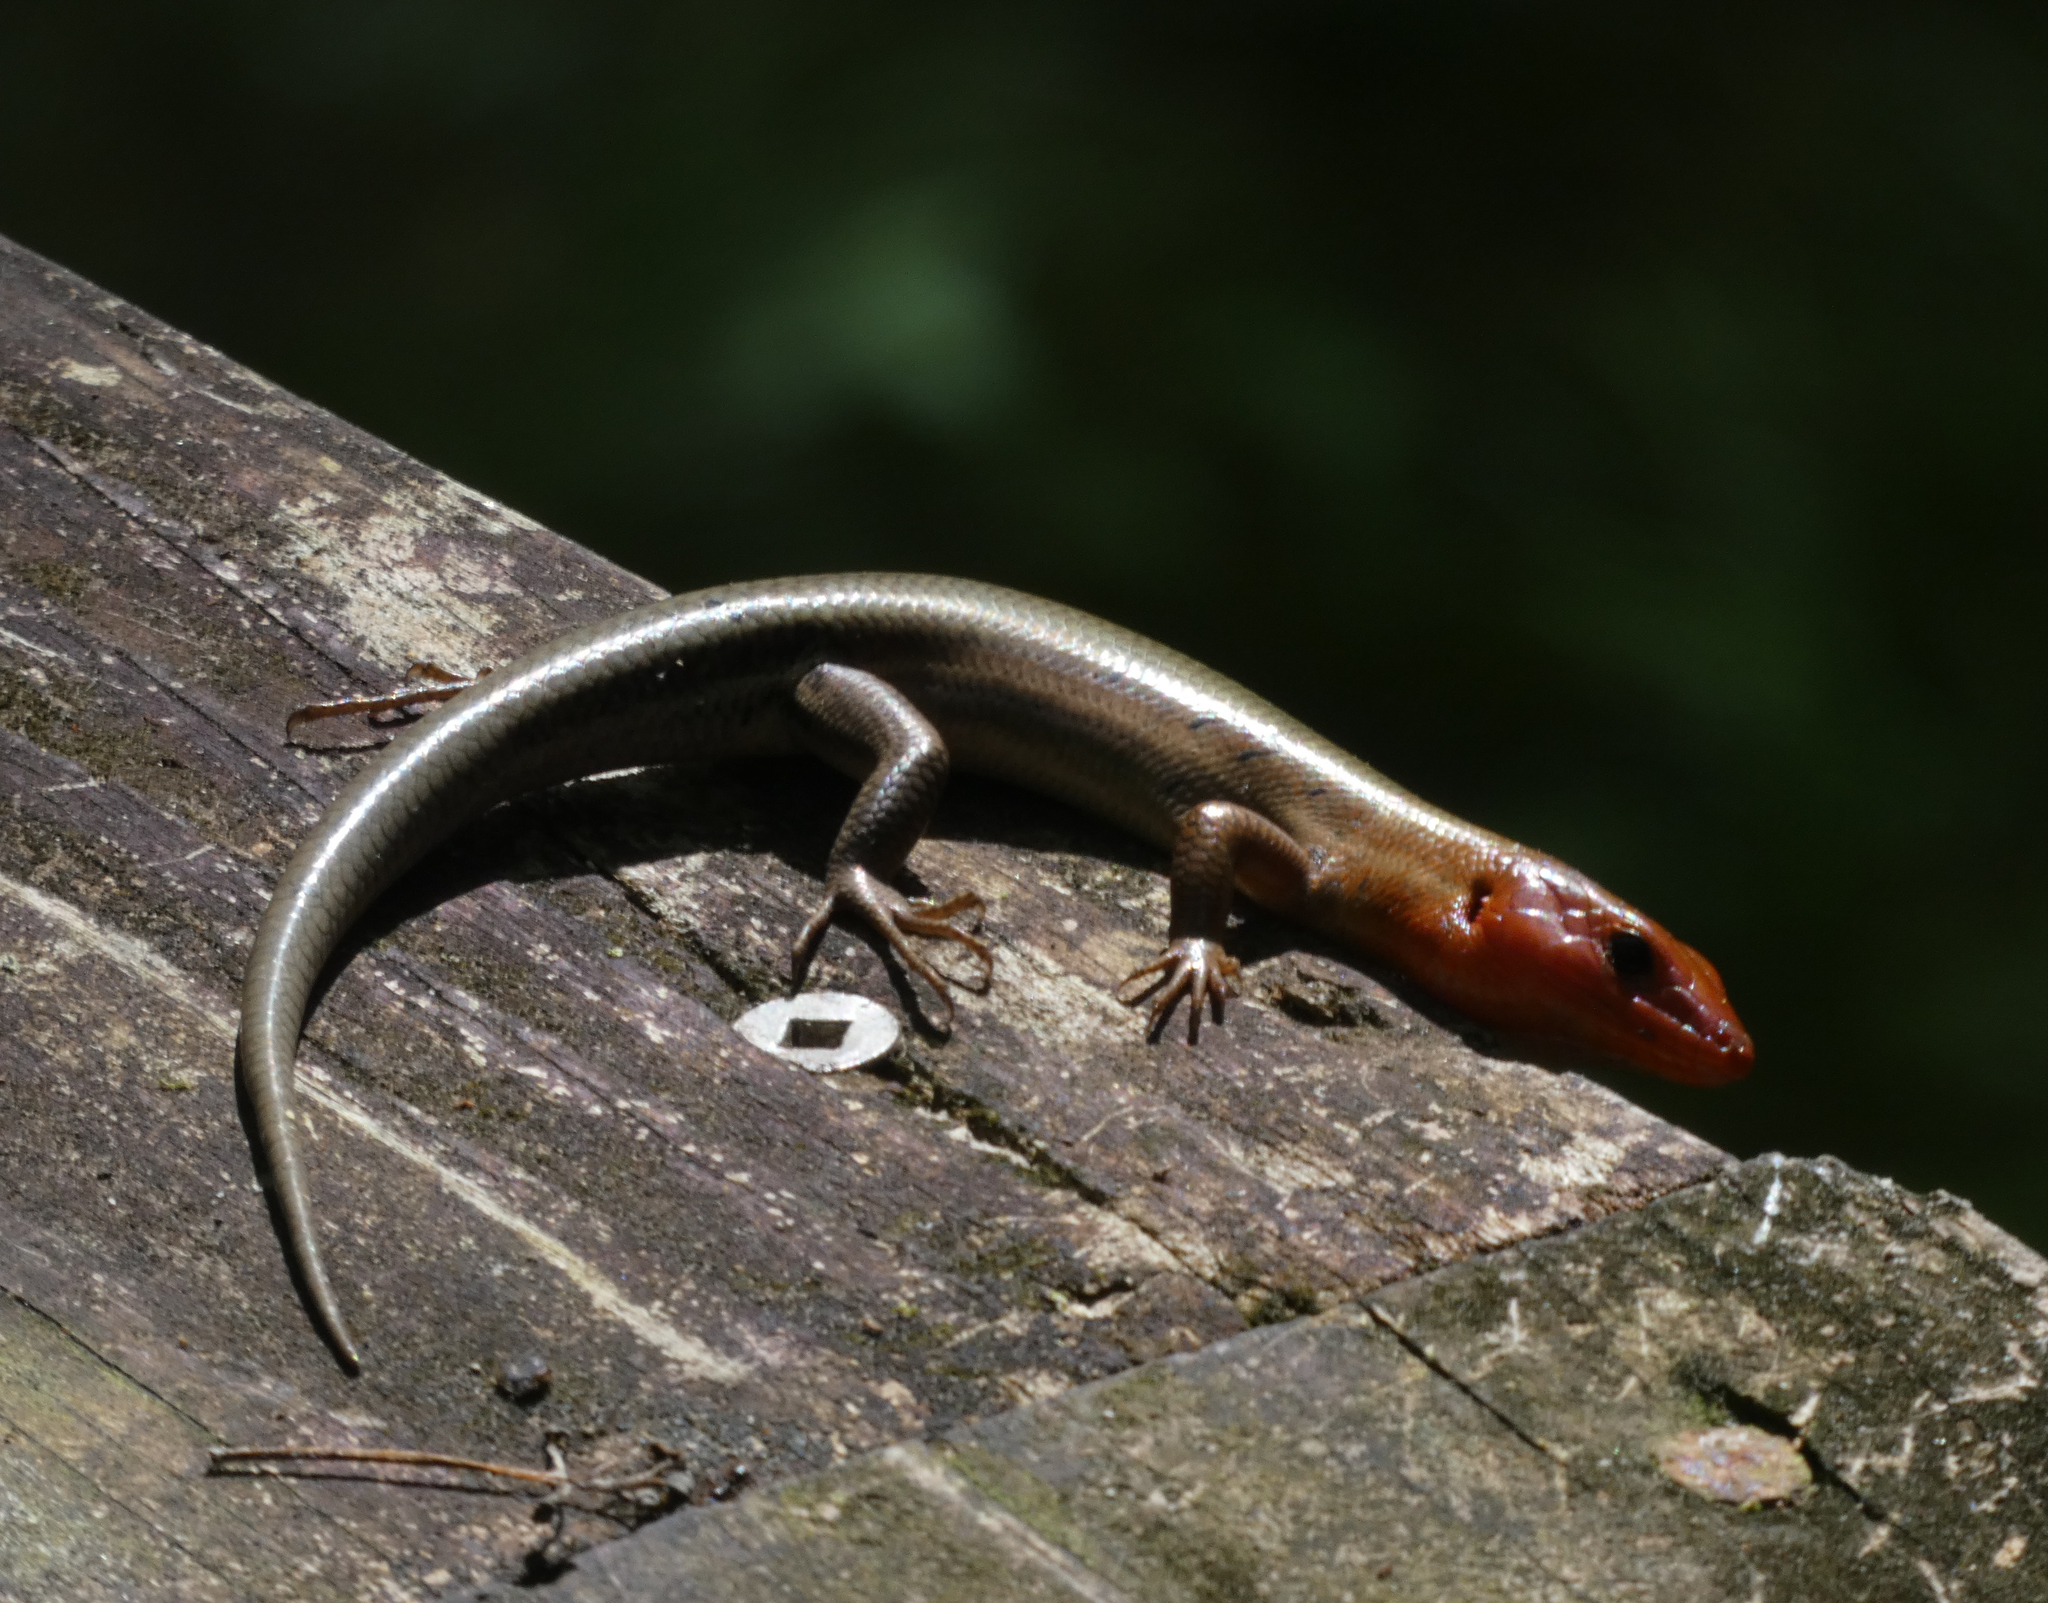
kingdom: Animalia
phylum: Chordata
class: Squamata
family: Scincidae
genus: Plestiodon
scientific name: Plestiodon fasciatus
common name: Five-lined skink
